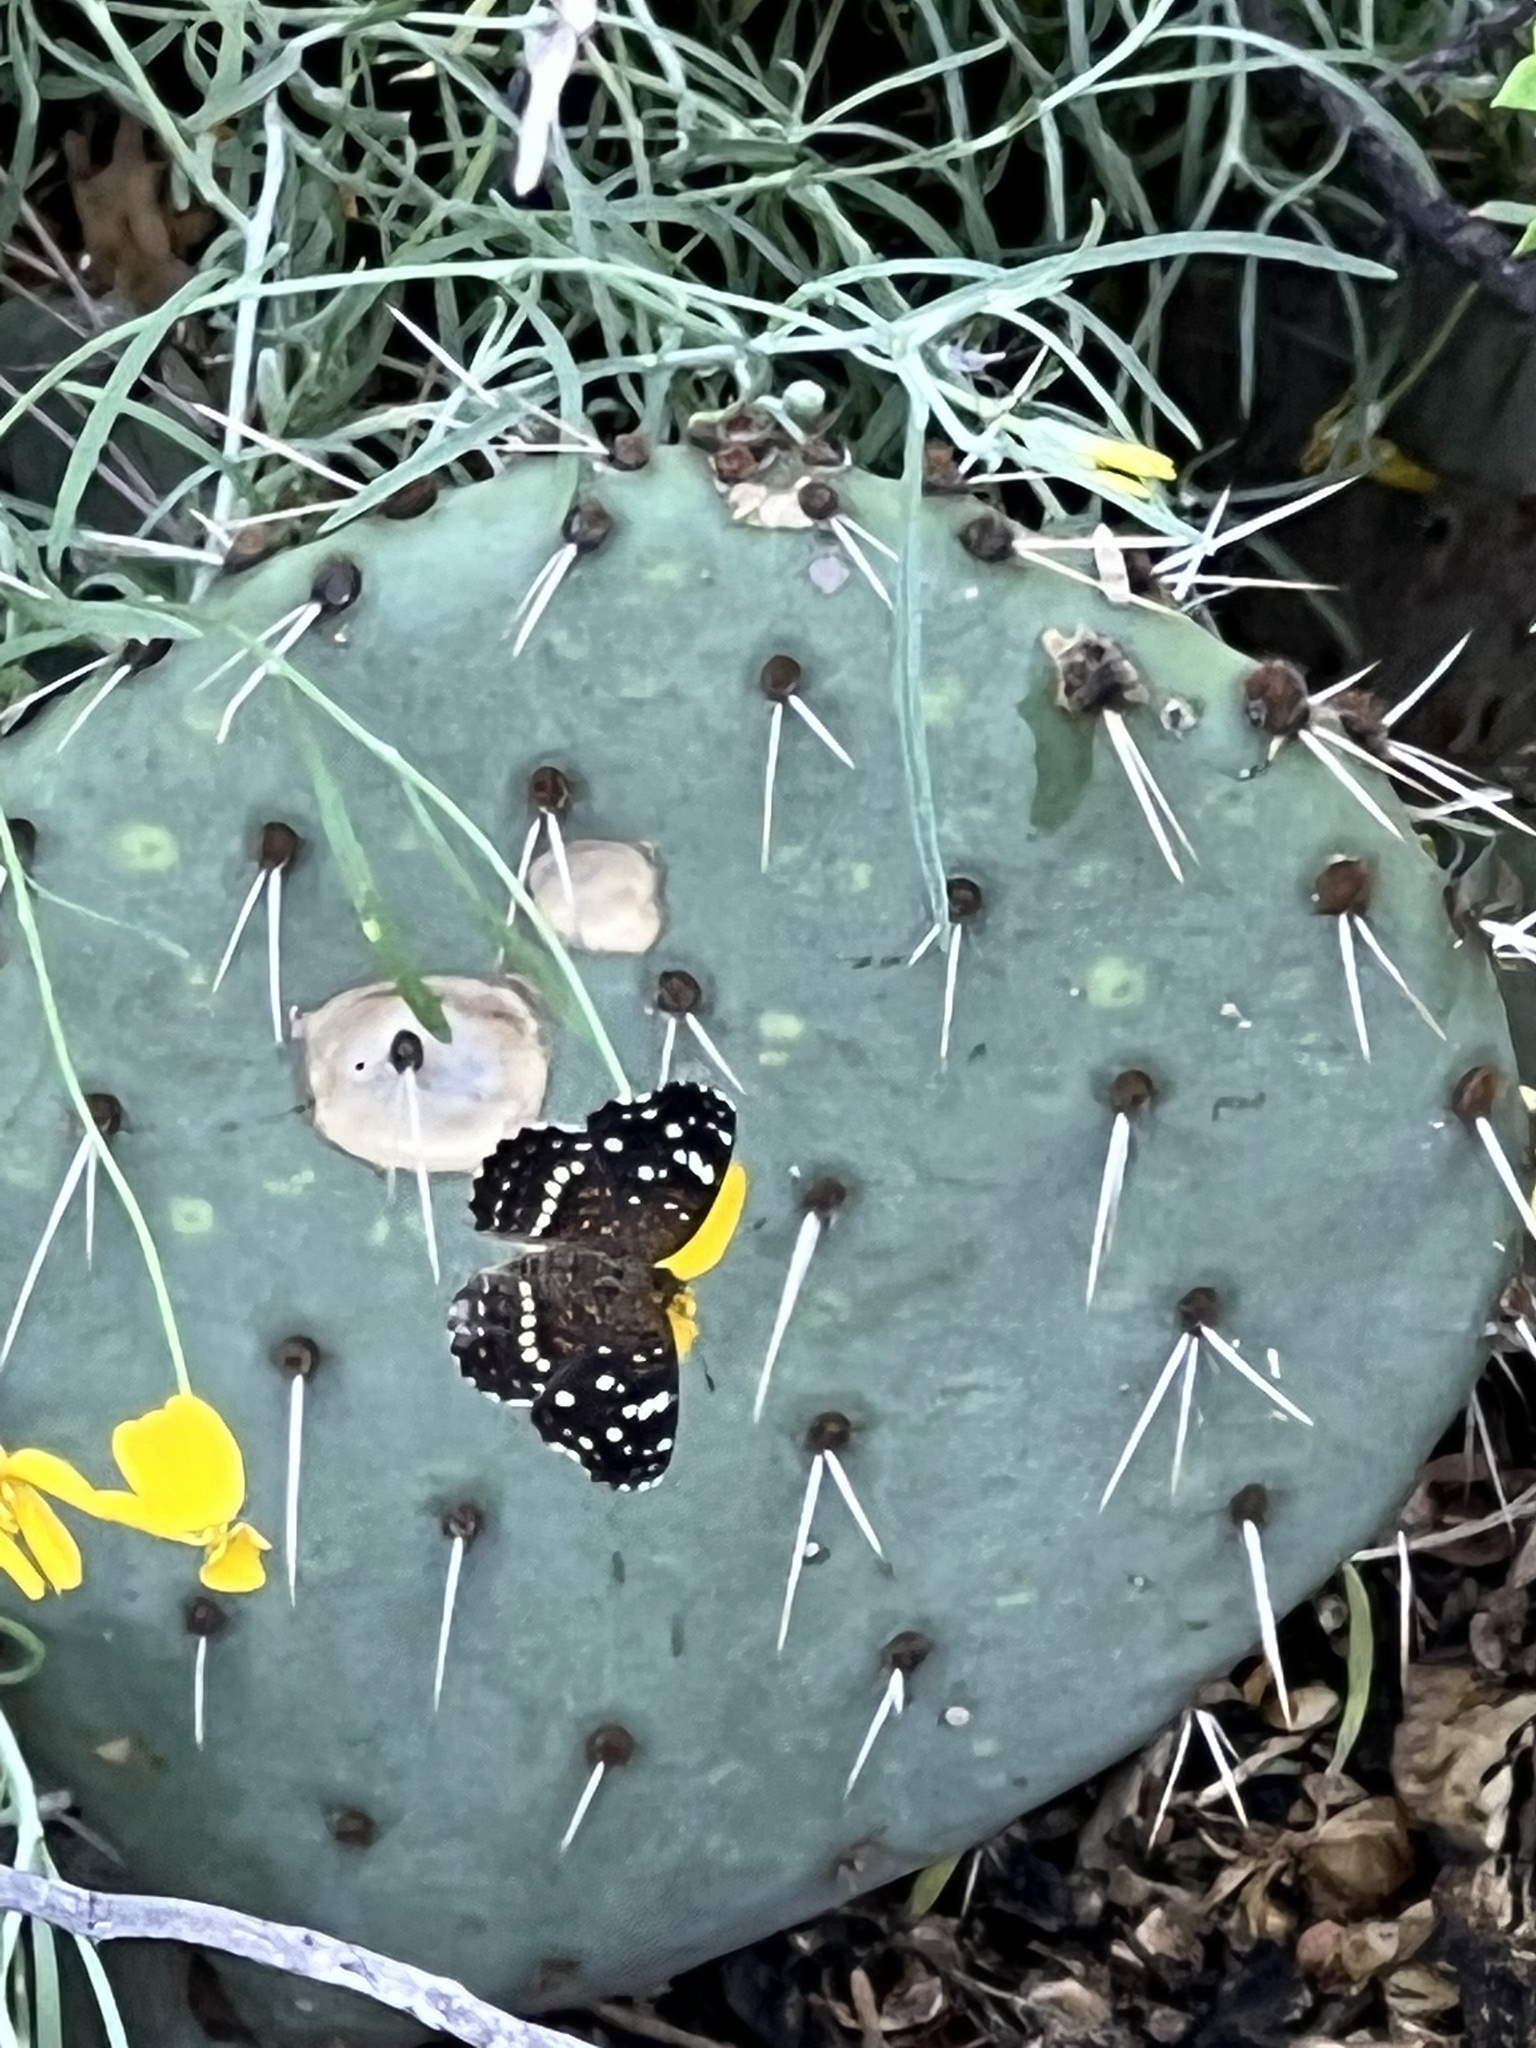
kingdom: Animalia
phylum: Arthropoda
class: Insecta
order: Lepidoptera
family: Nymphalidae
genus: Anthanassa
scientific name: Anthanassa texana
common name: Texan crescent
